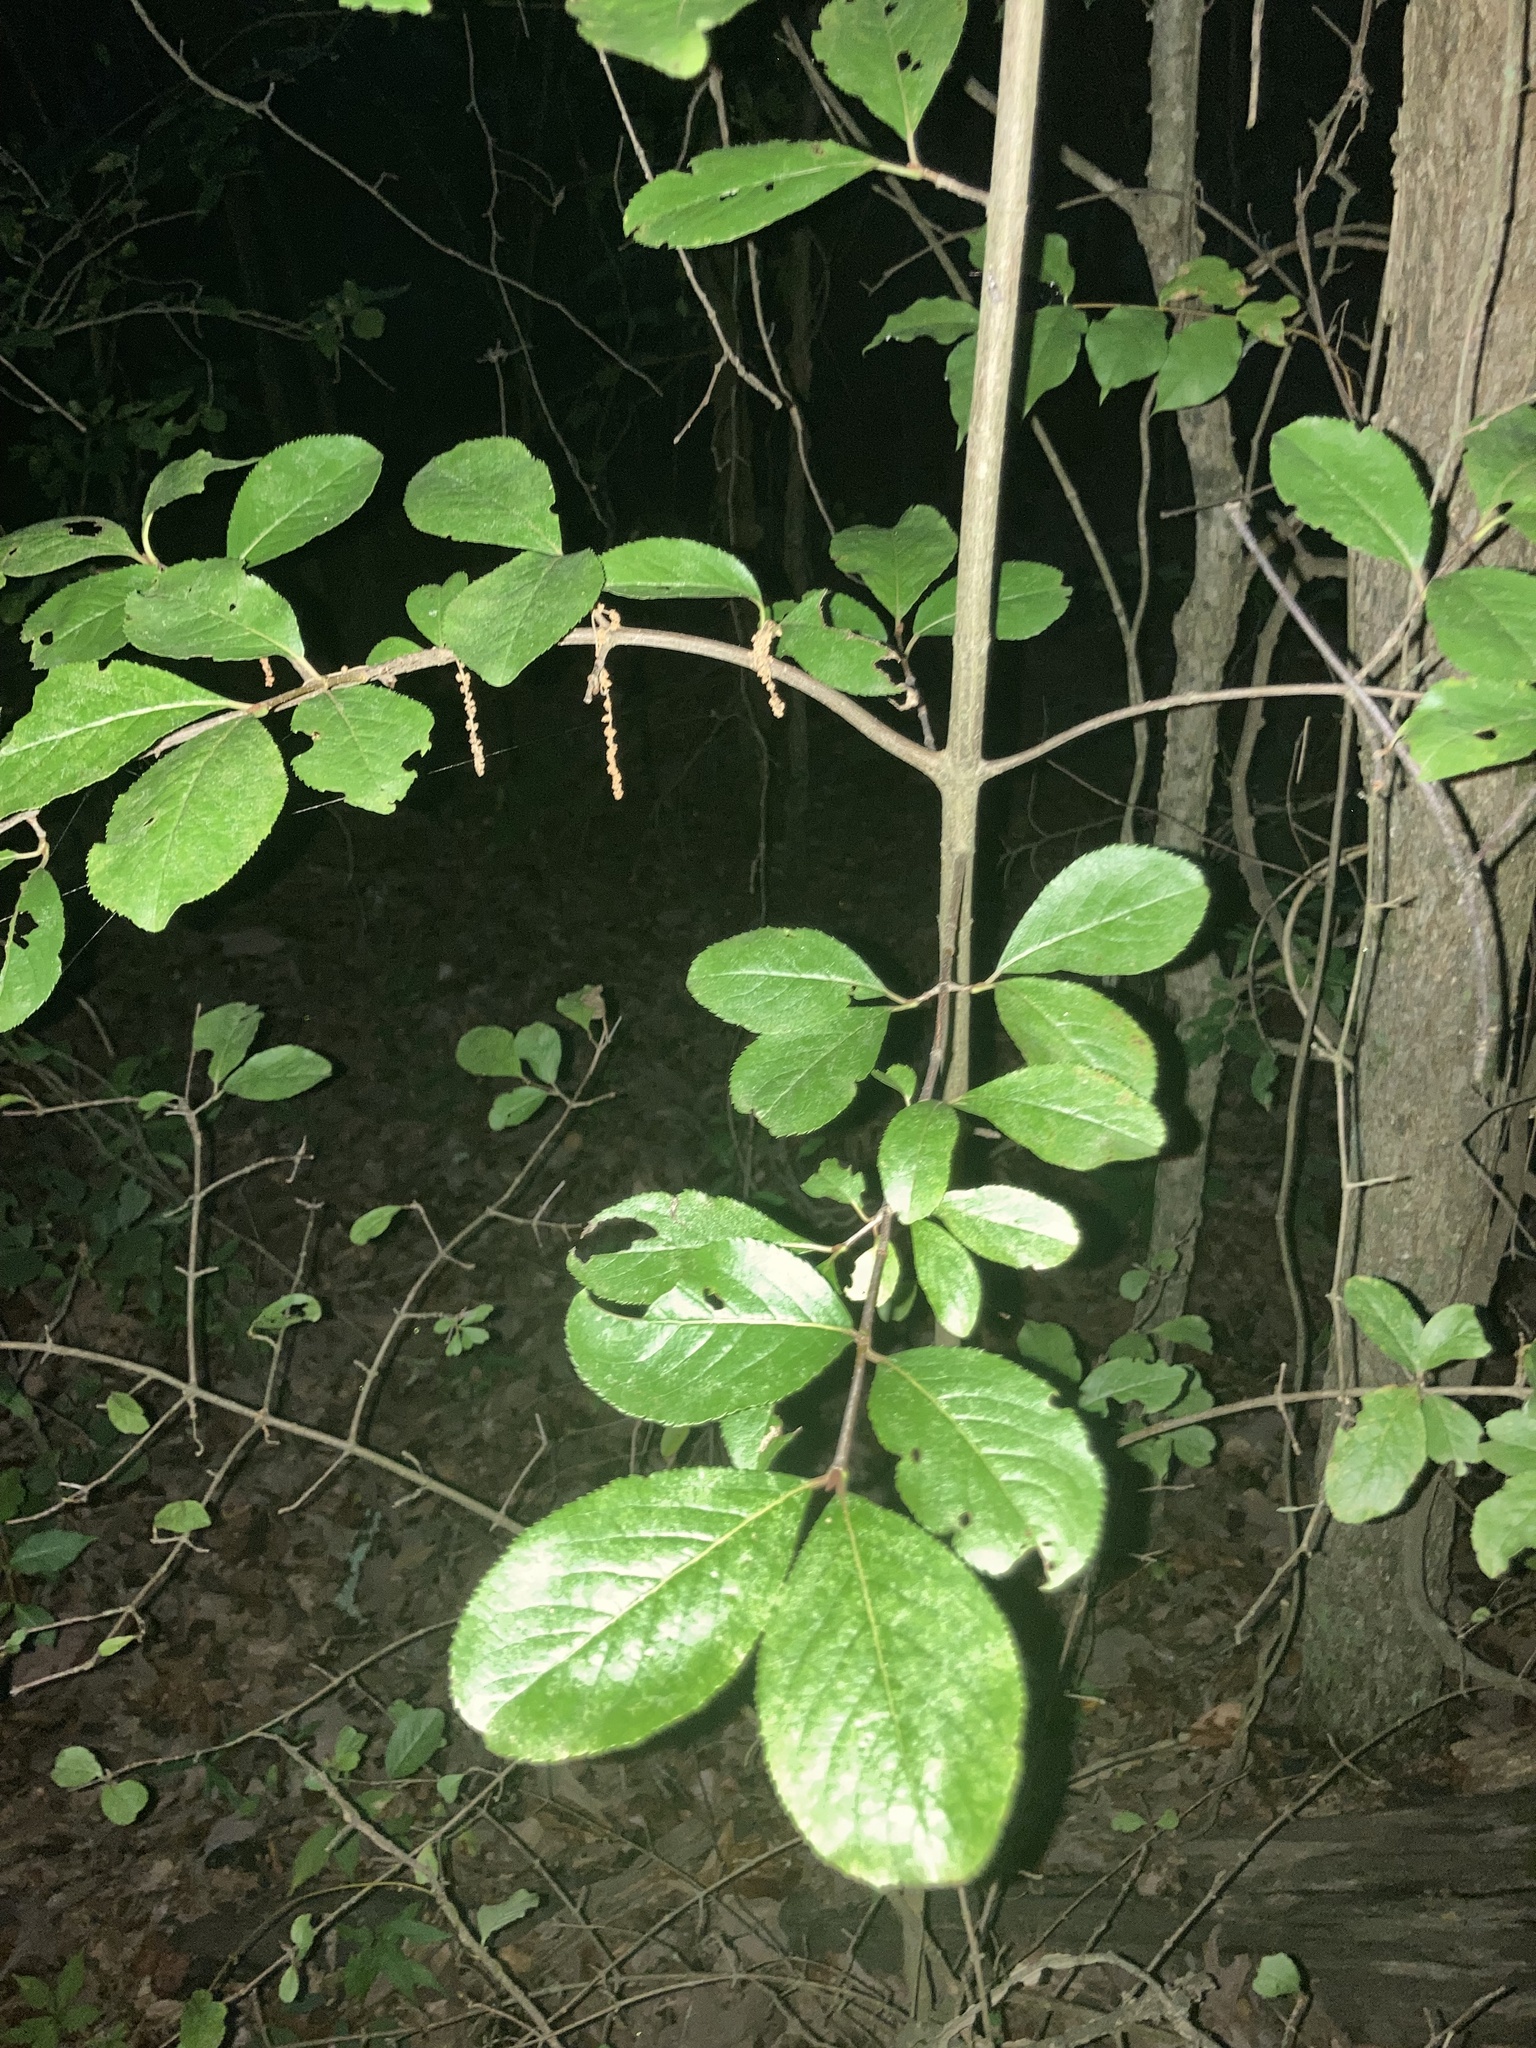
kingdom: Plantae
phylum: Tracheophyta
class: Magnoliopsida
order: Dipsacales
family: Viburnaceae
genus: Viburnum
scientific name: Viburnum rufidulum
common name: Blue haw
